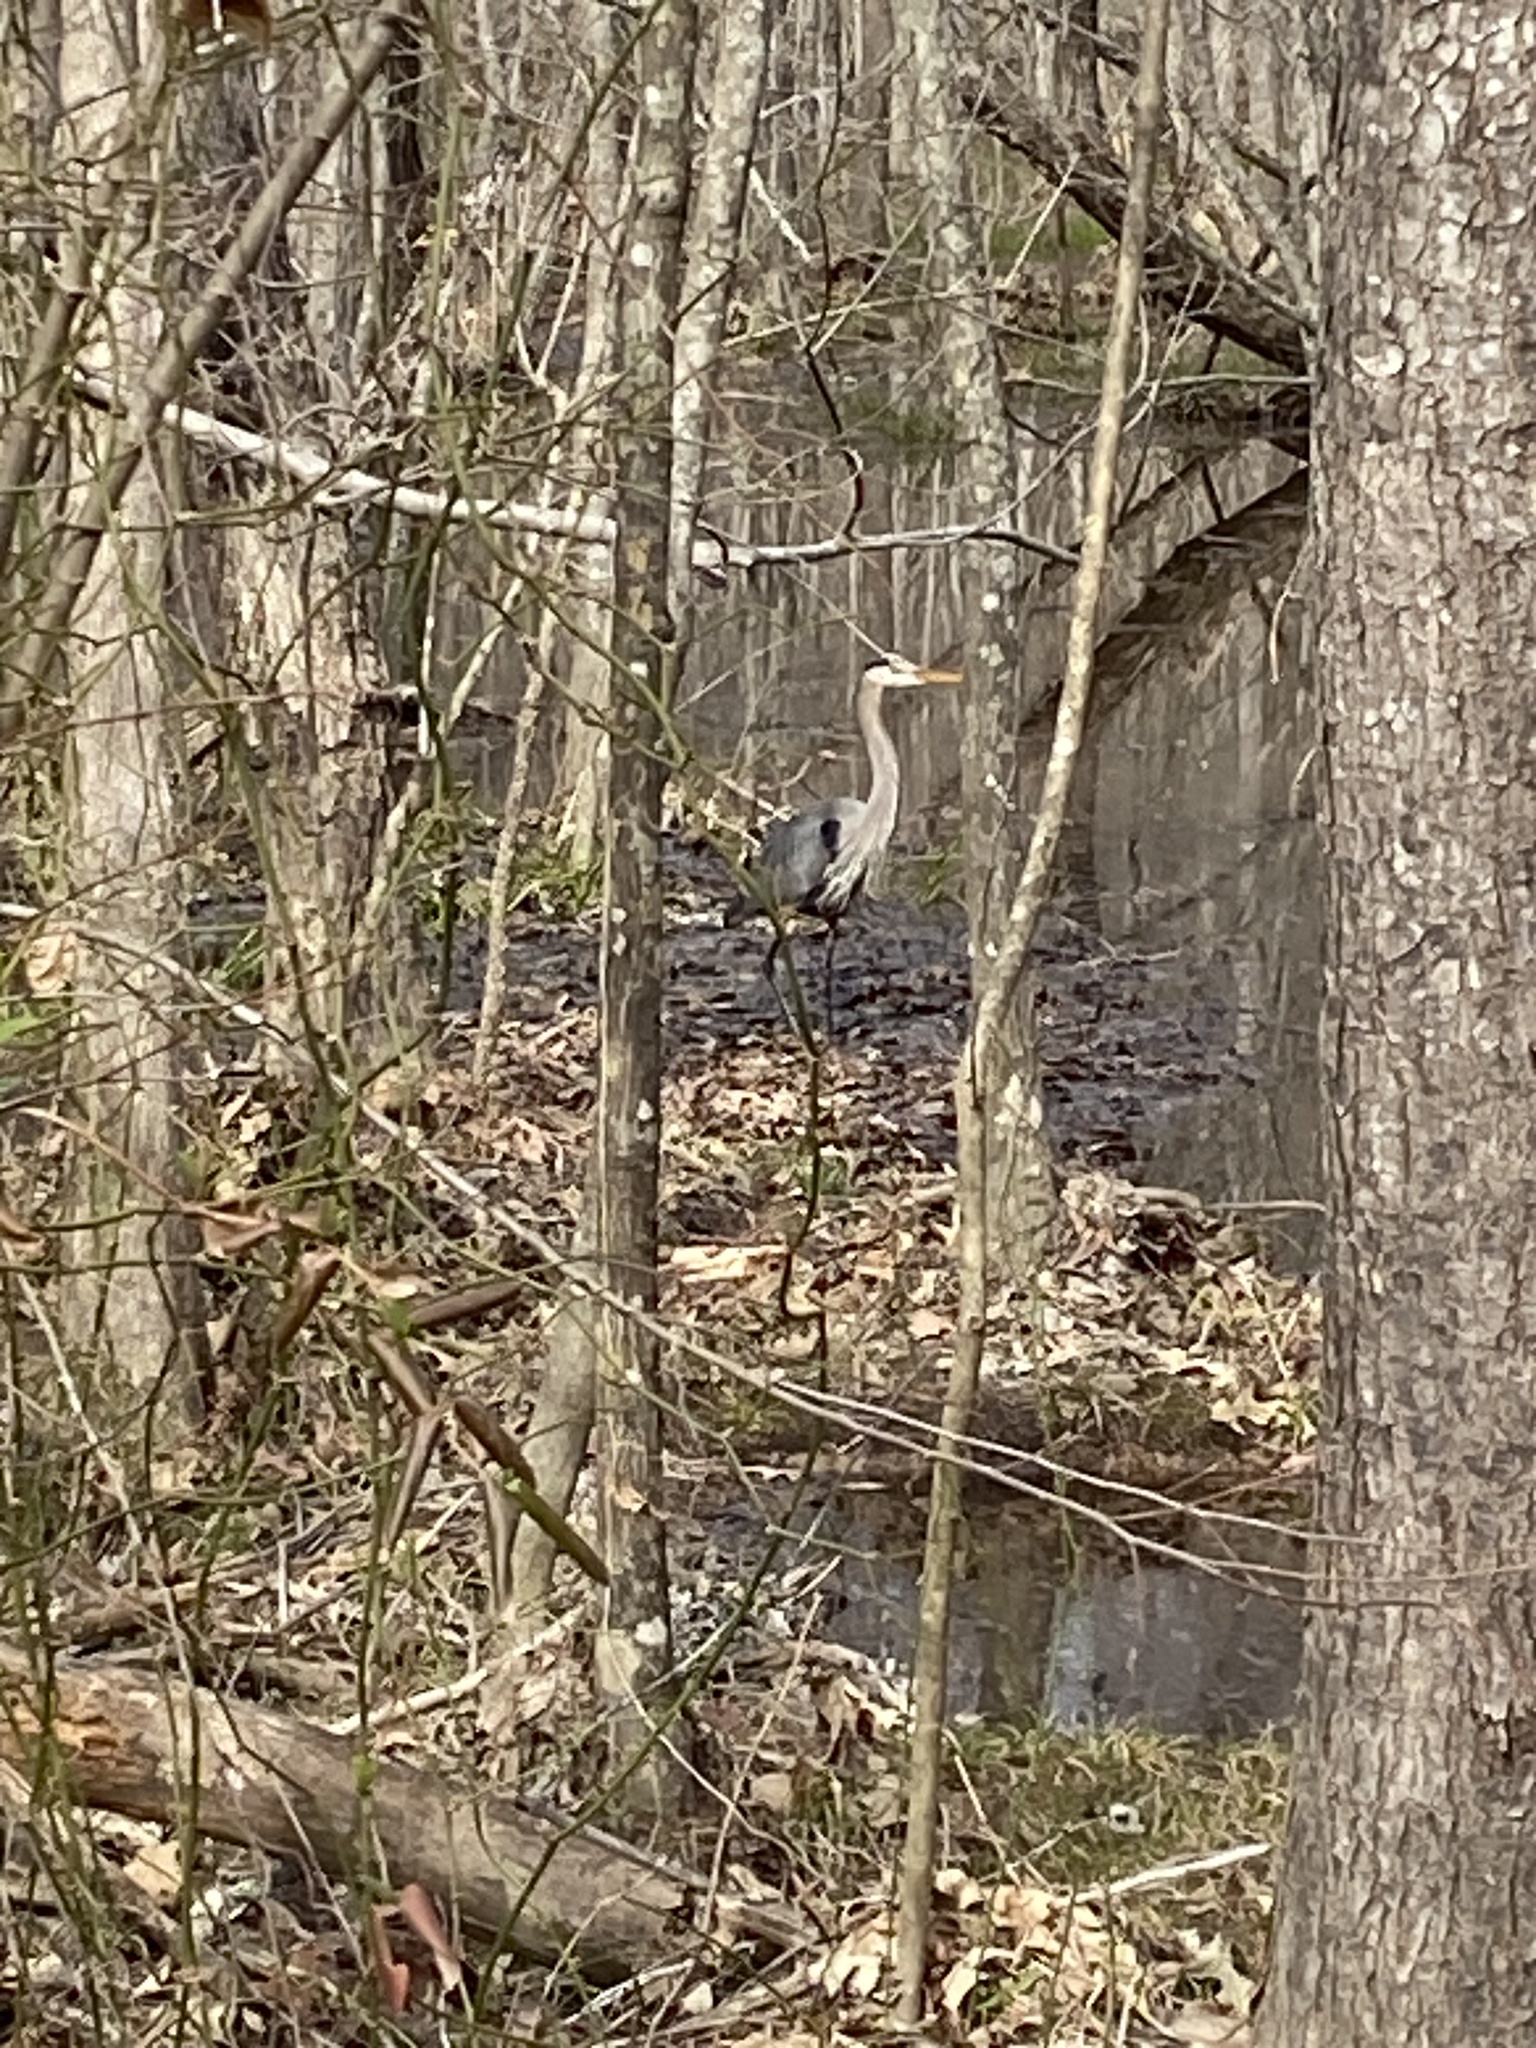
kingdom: Animalia
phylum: Chordata
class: Aves
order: Pelecaniformes
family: Ardeidae
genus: Ardea
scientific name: Ardea herodias
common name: Great blue heron
